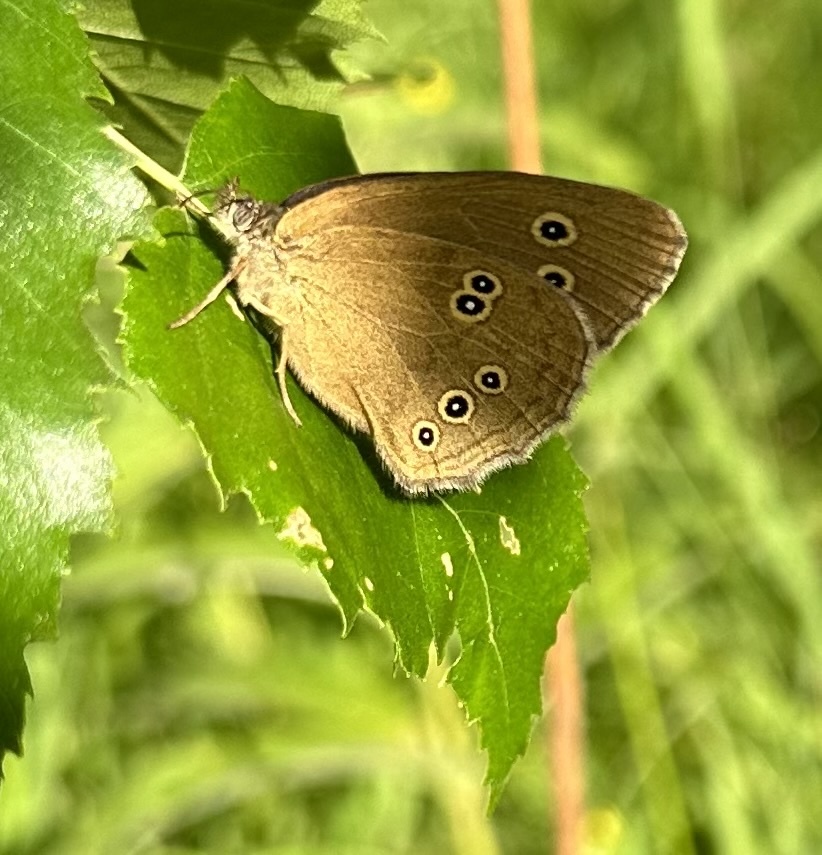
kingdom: Animalia
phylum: Arthropoda
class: Insecta
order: Lepidoptera
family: Nymphalidae
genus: Aphantopus
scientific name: Aphantopus hyperantus
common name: Ringlet
